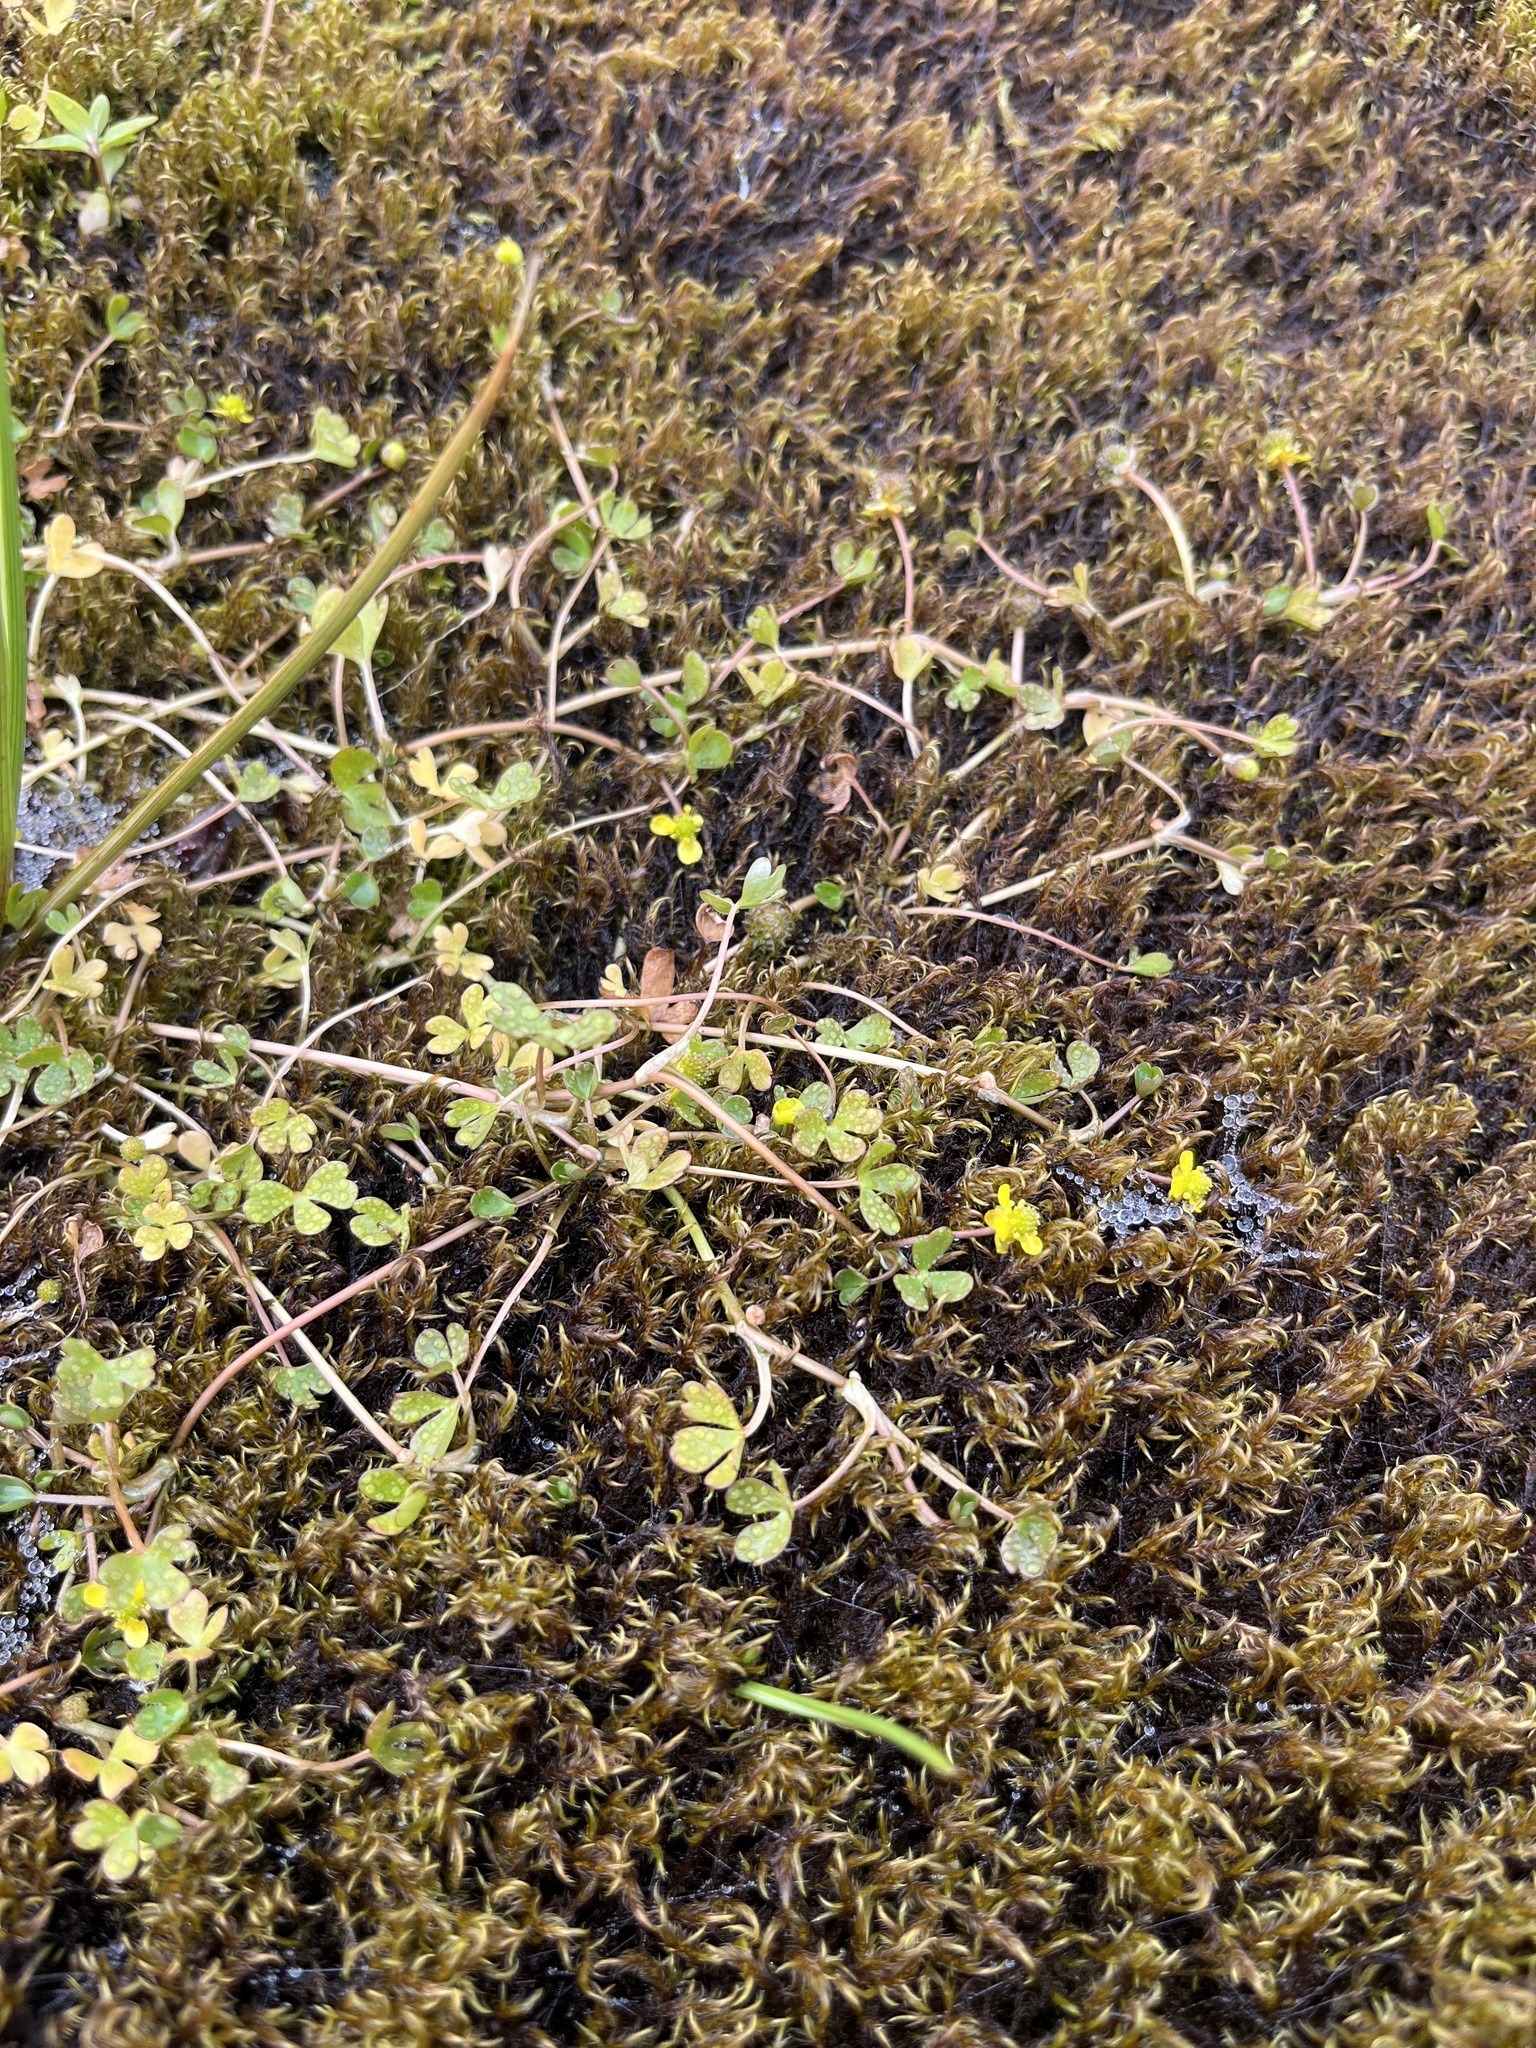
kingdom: Plantae
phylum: Tracheophyta
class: Magnoliopsida
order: Ranunculales
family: Ranunculaceae
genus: Ranunculus
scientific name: Ranunculus hyperboreus
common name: Arctic buttercup
